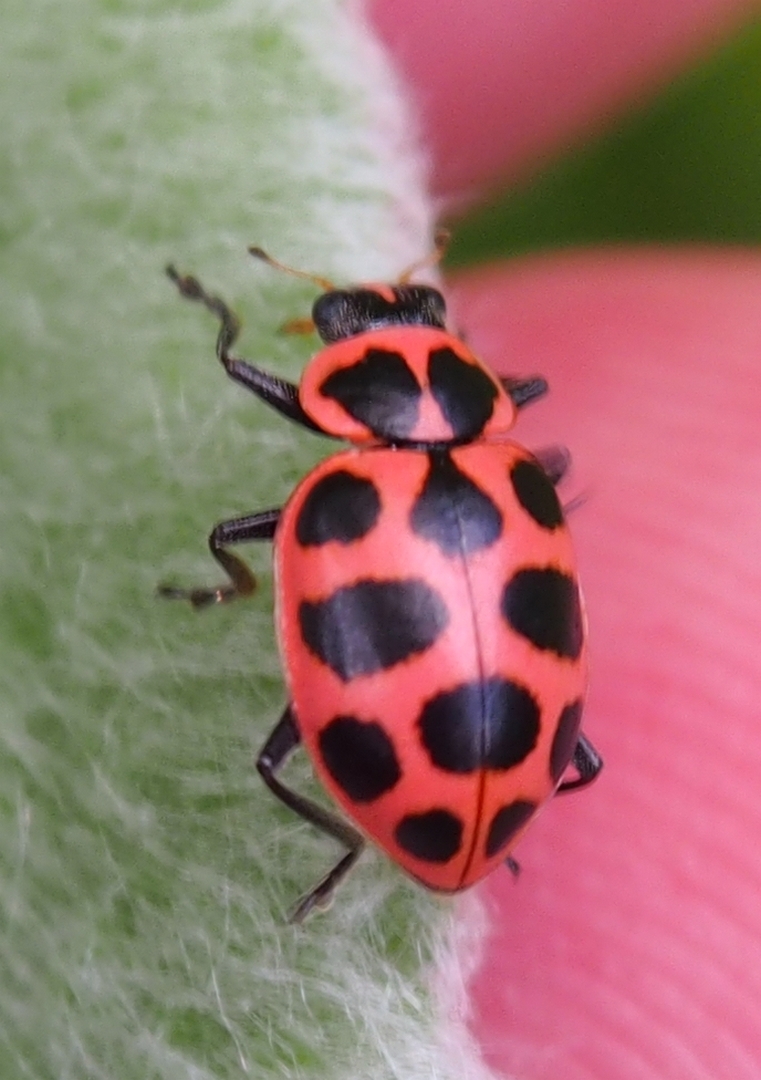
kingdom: Animalia
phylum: Arthropoda
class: Insecta
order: Coleoptera
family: Coccinellidae
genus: Coleomegilla
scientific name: Coleomegilla maculata
